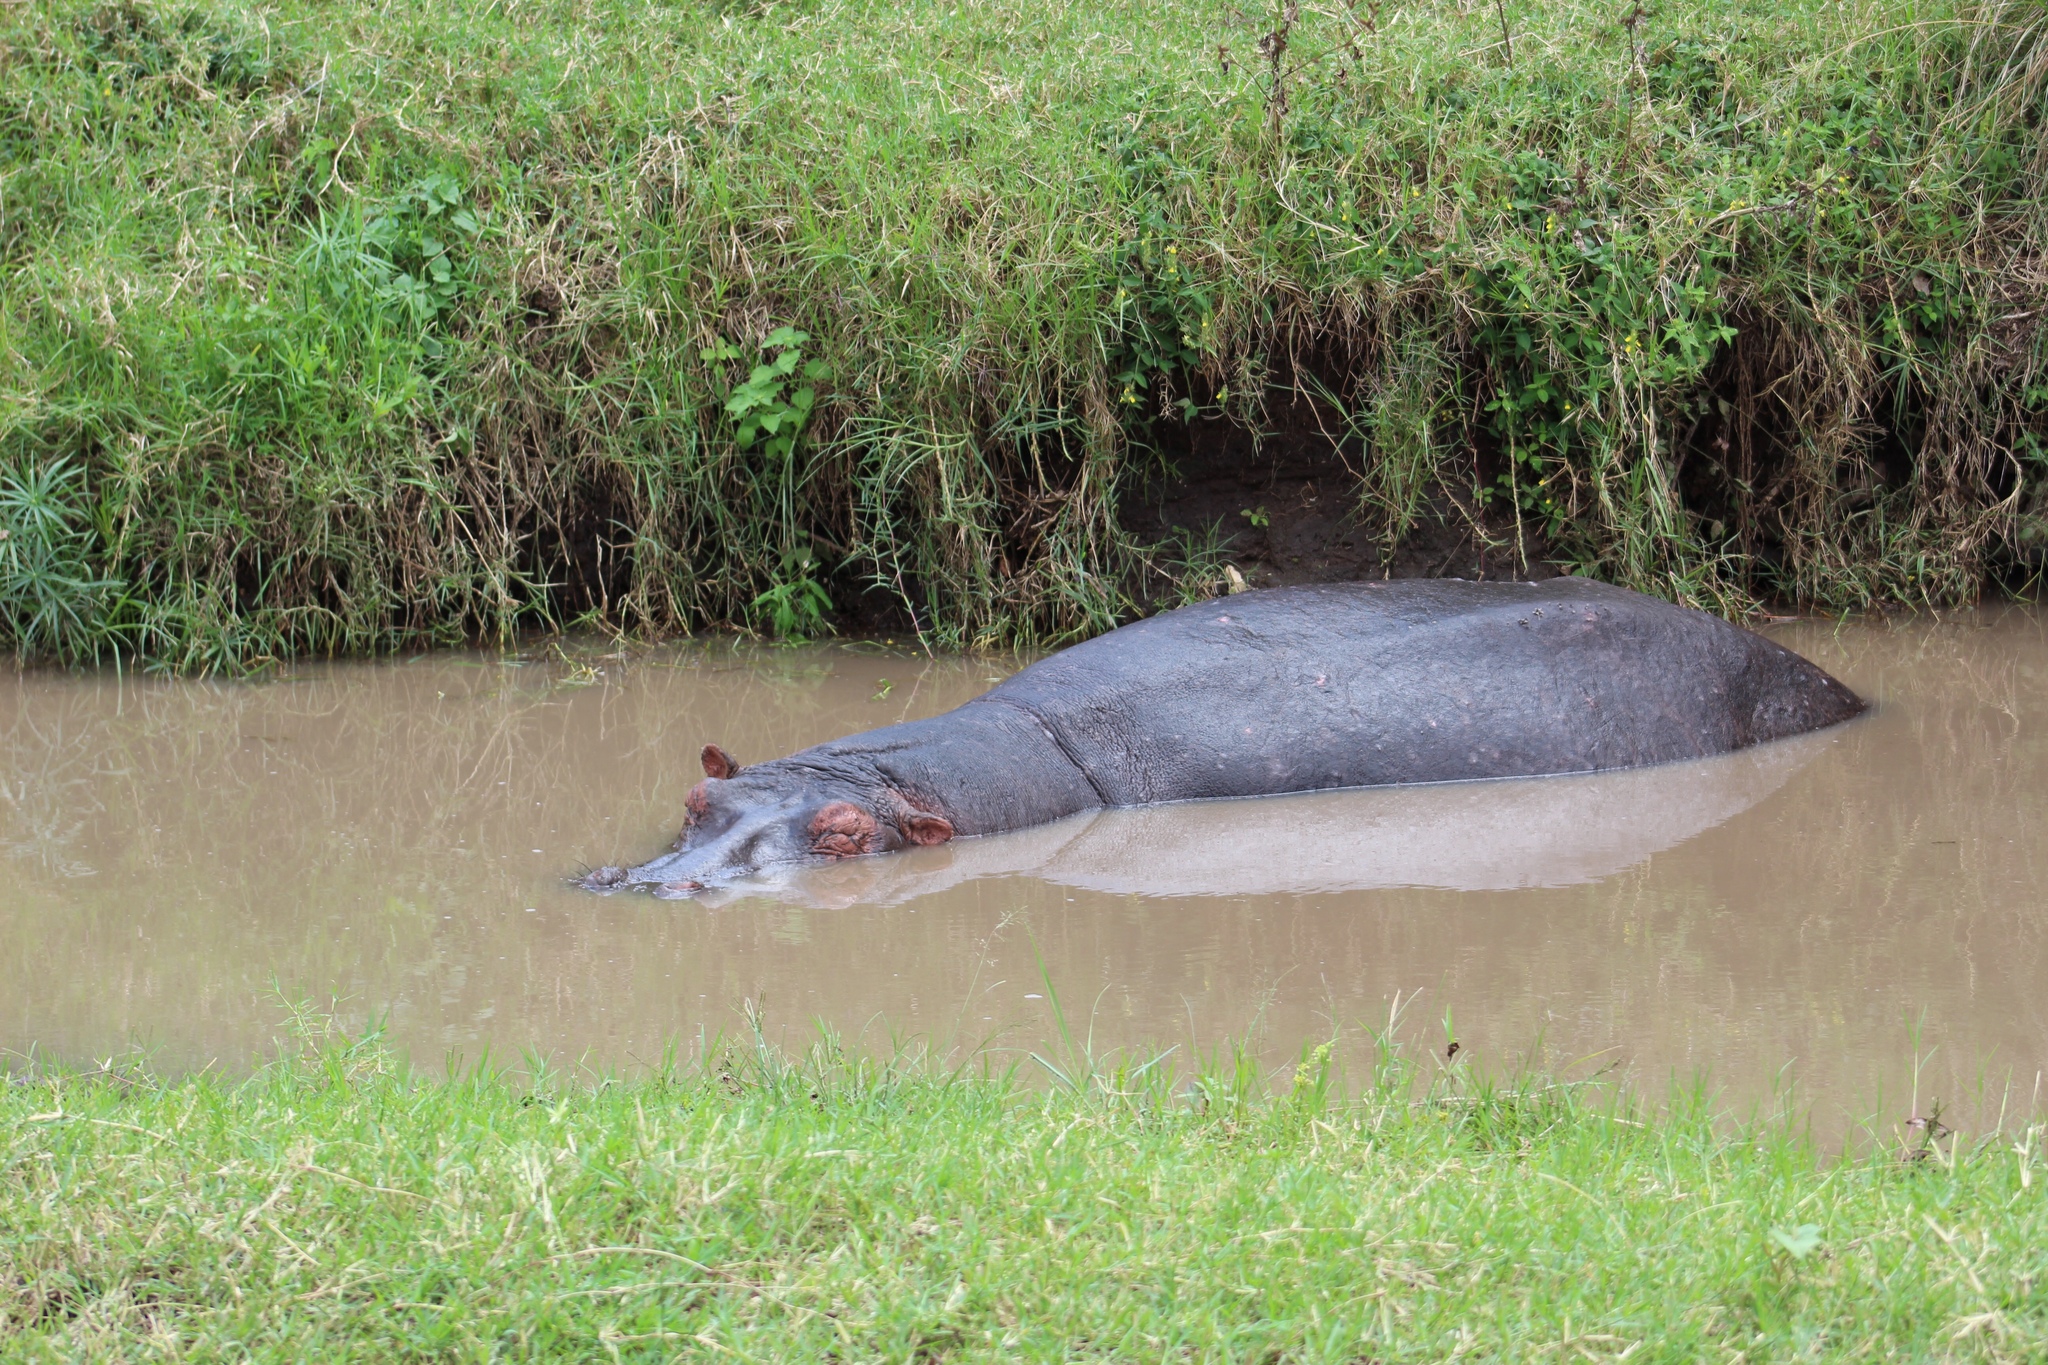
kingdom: Animalia
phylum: Chordata
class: Mammalia
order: Artiodactyla
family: Hippopotamidae
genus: Hippopotamus
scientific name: Hippopotamus amphibius
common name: Common hippopotamus
